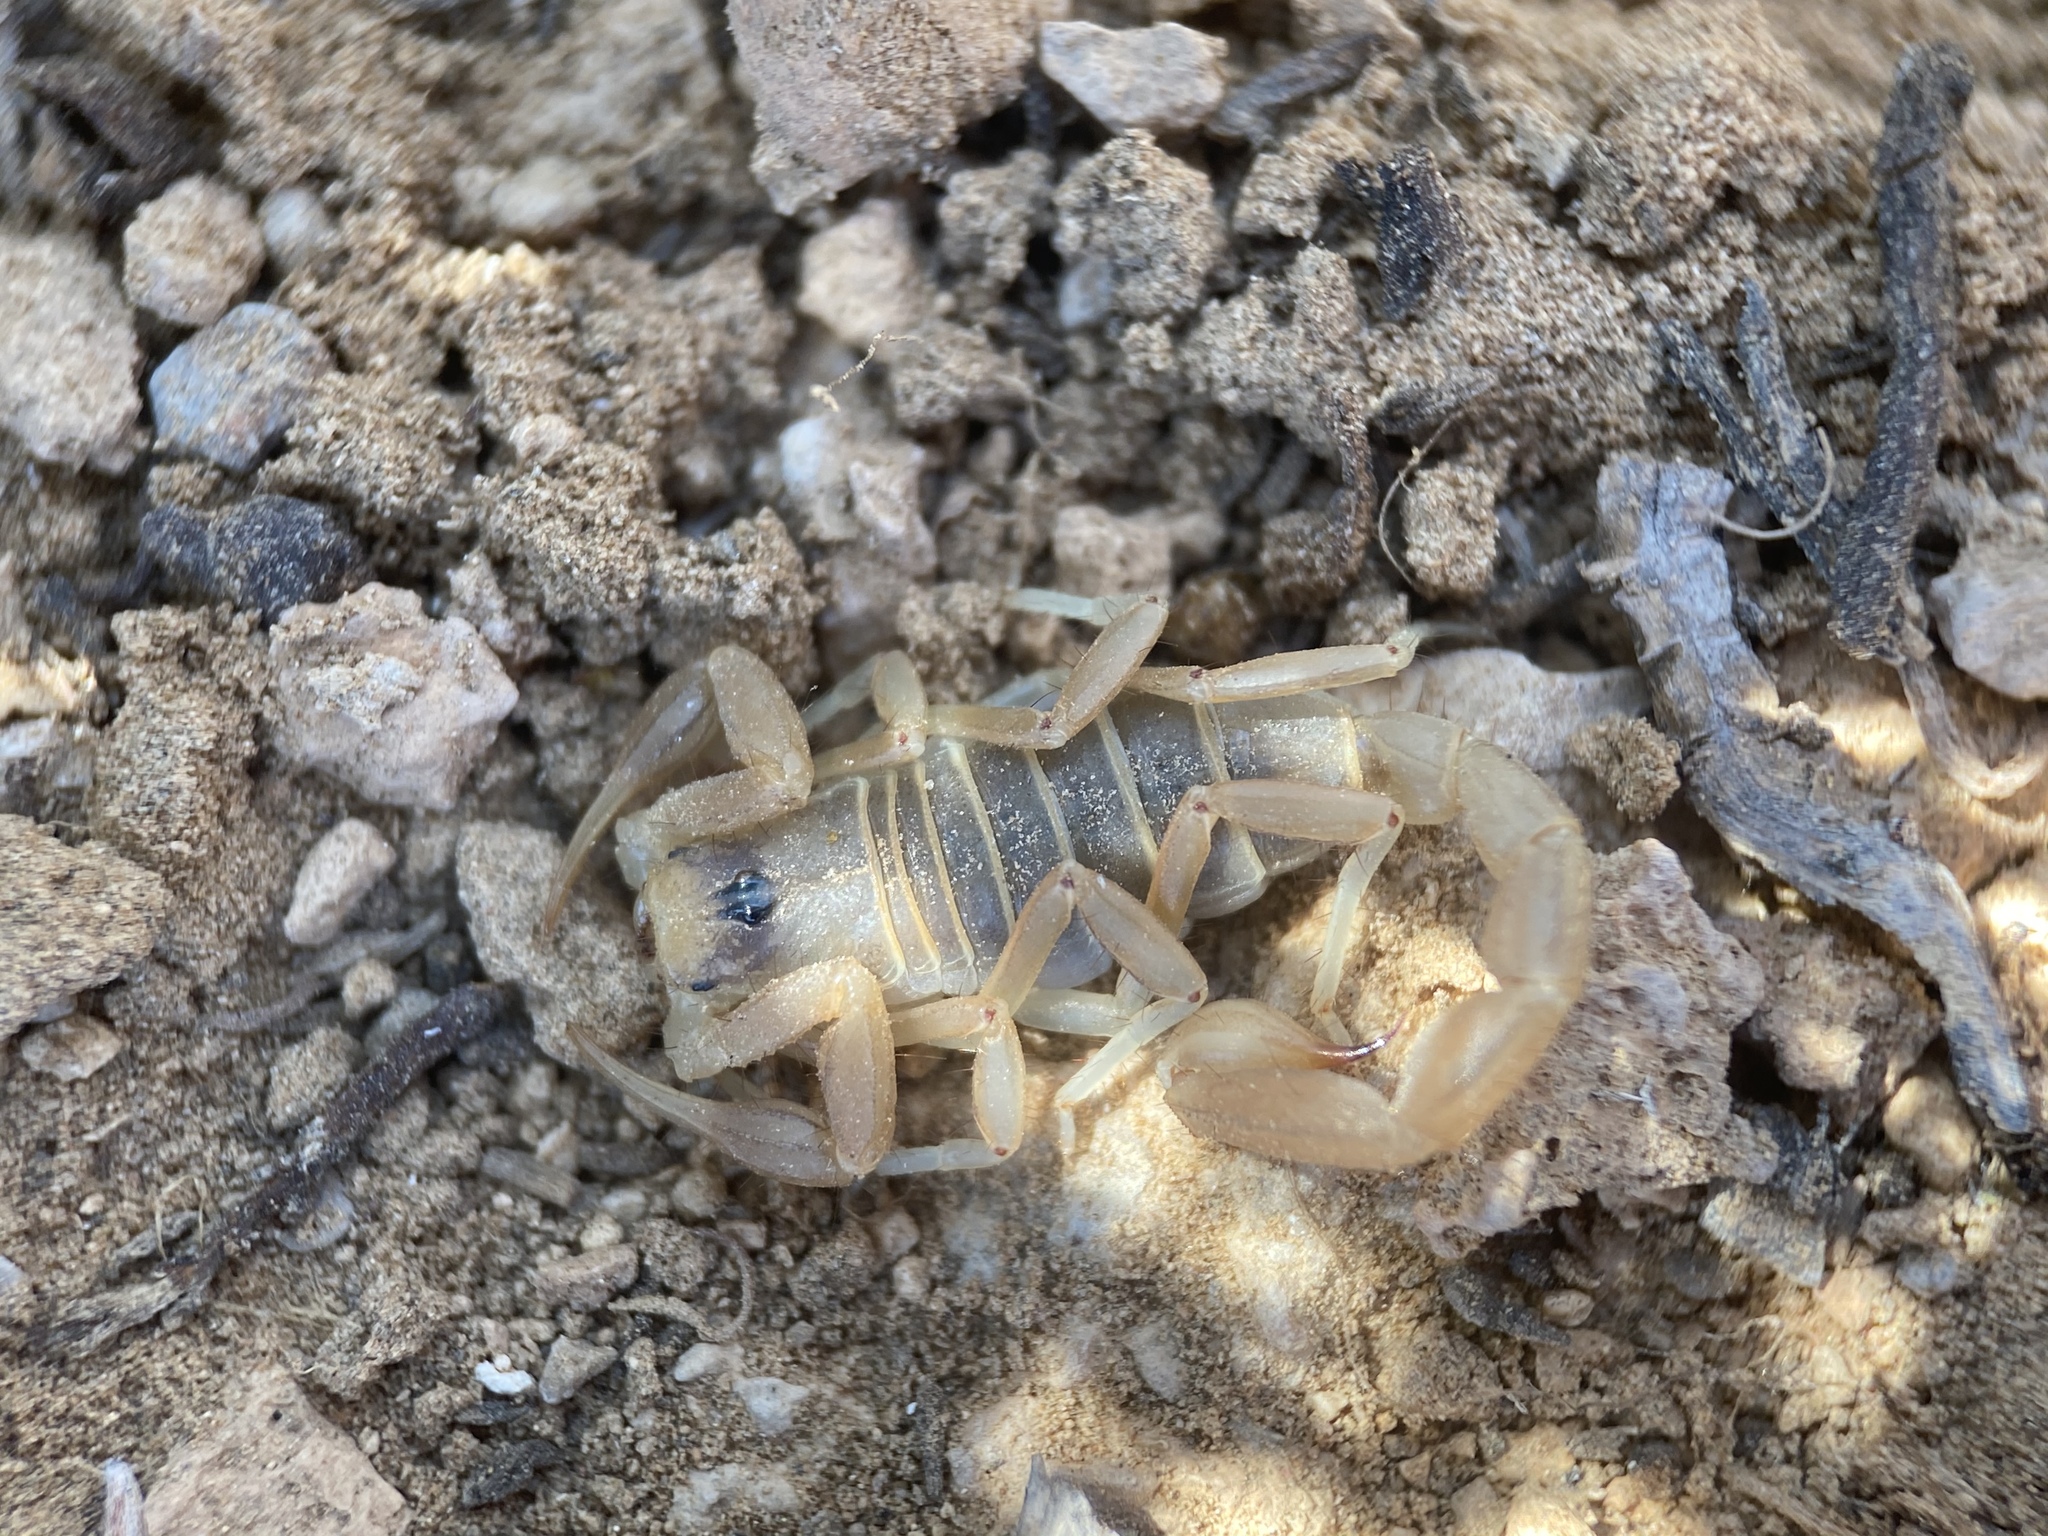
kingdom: Animalia
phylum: Arthropoda
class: Arachnida
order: Scorpiones
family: Vaejovidae
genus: Paruroctonus
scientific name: Paruroctonus becki
